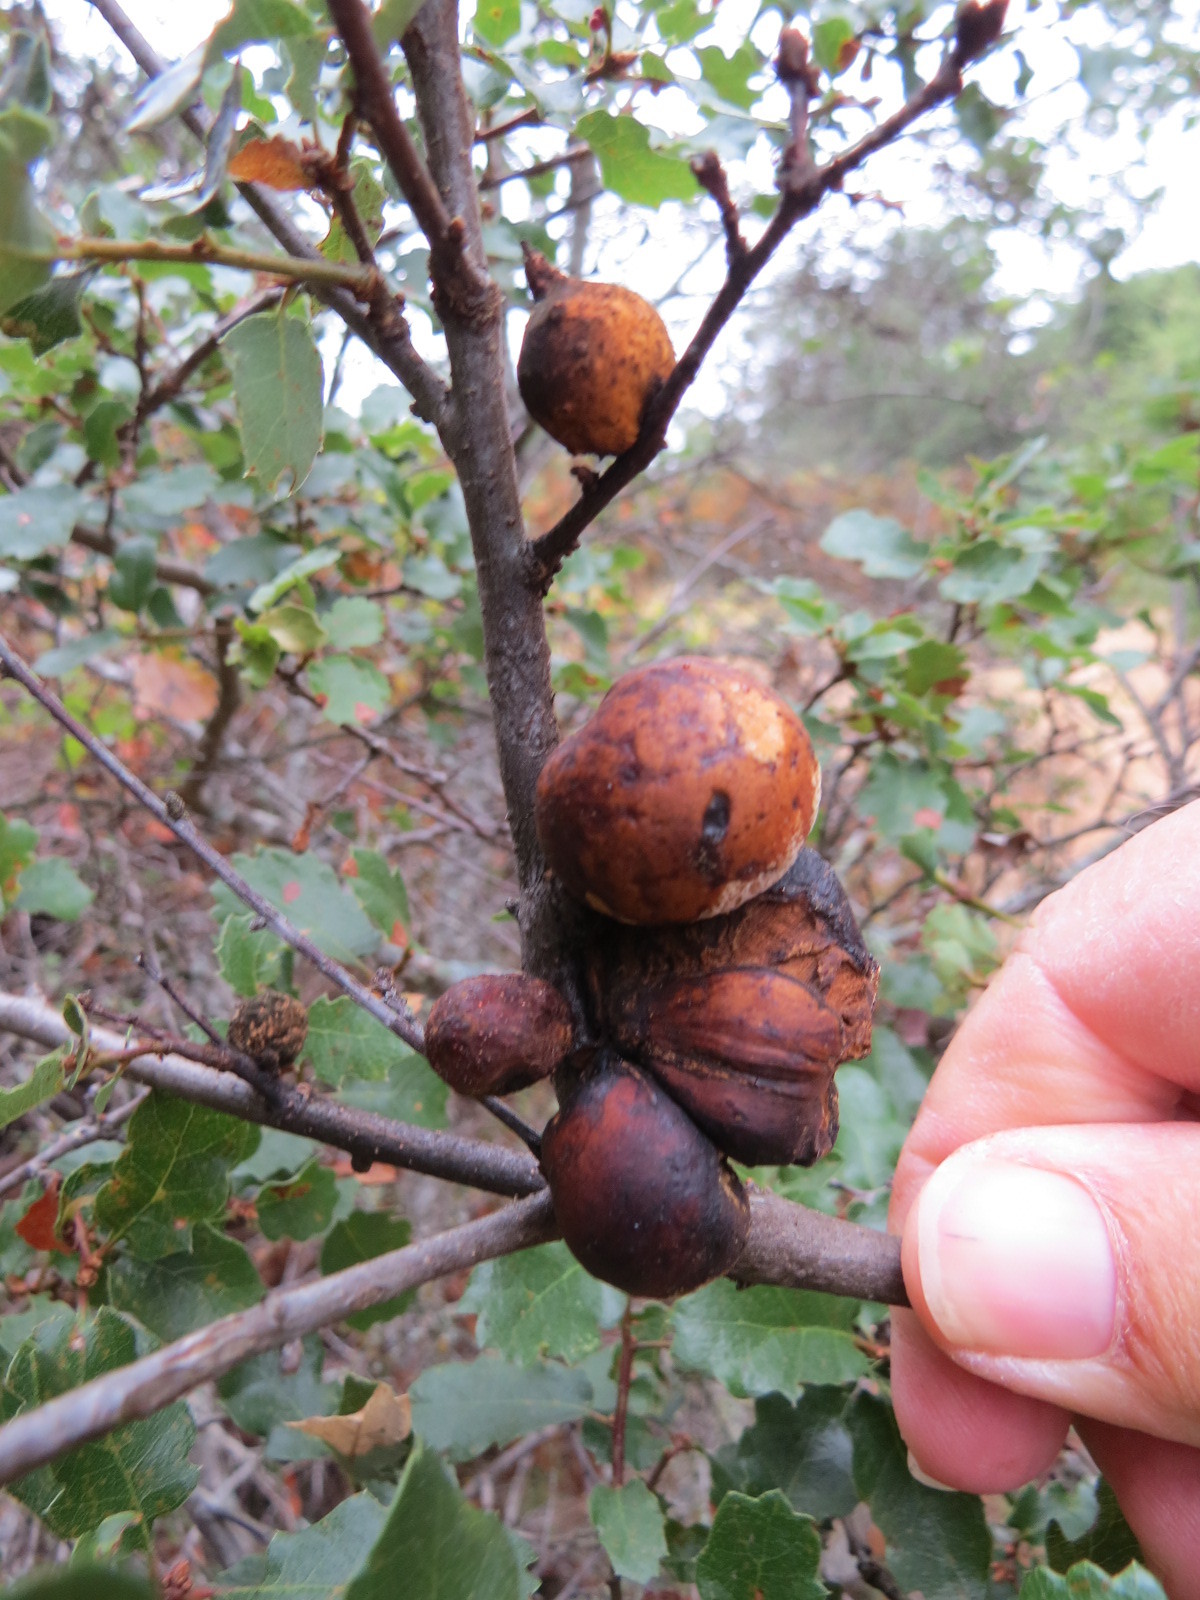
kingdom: Animalia
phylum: Arthropoda
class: Insecta
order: Hymenoptera
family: Cynipidae
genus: Andricus
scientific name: Andricus quercuscalifornicus
